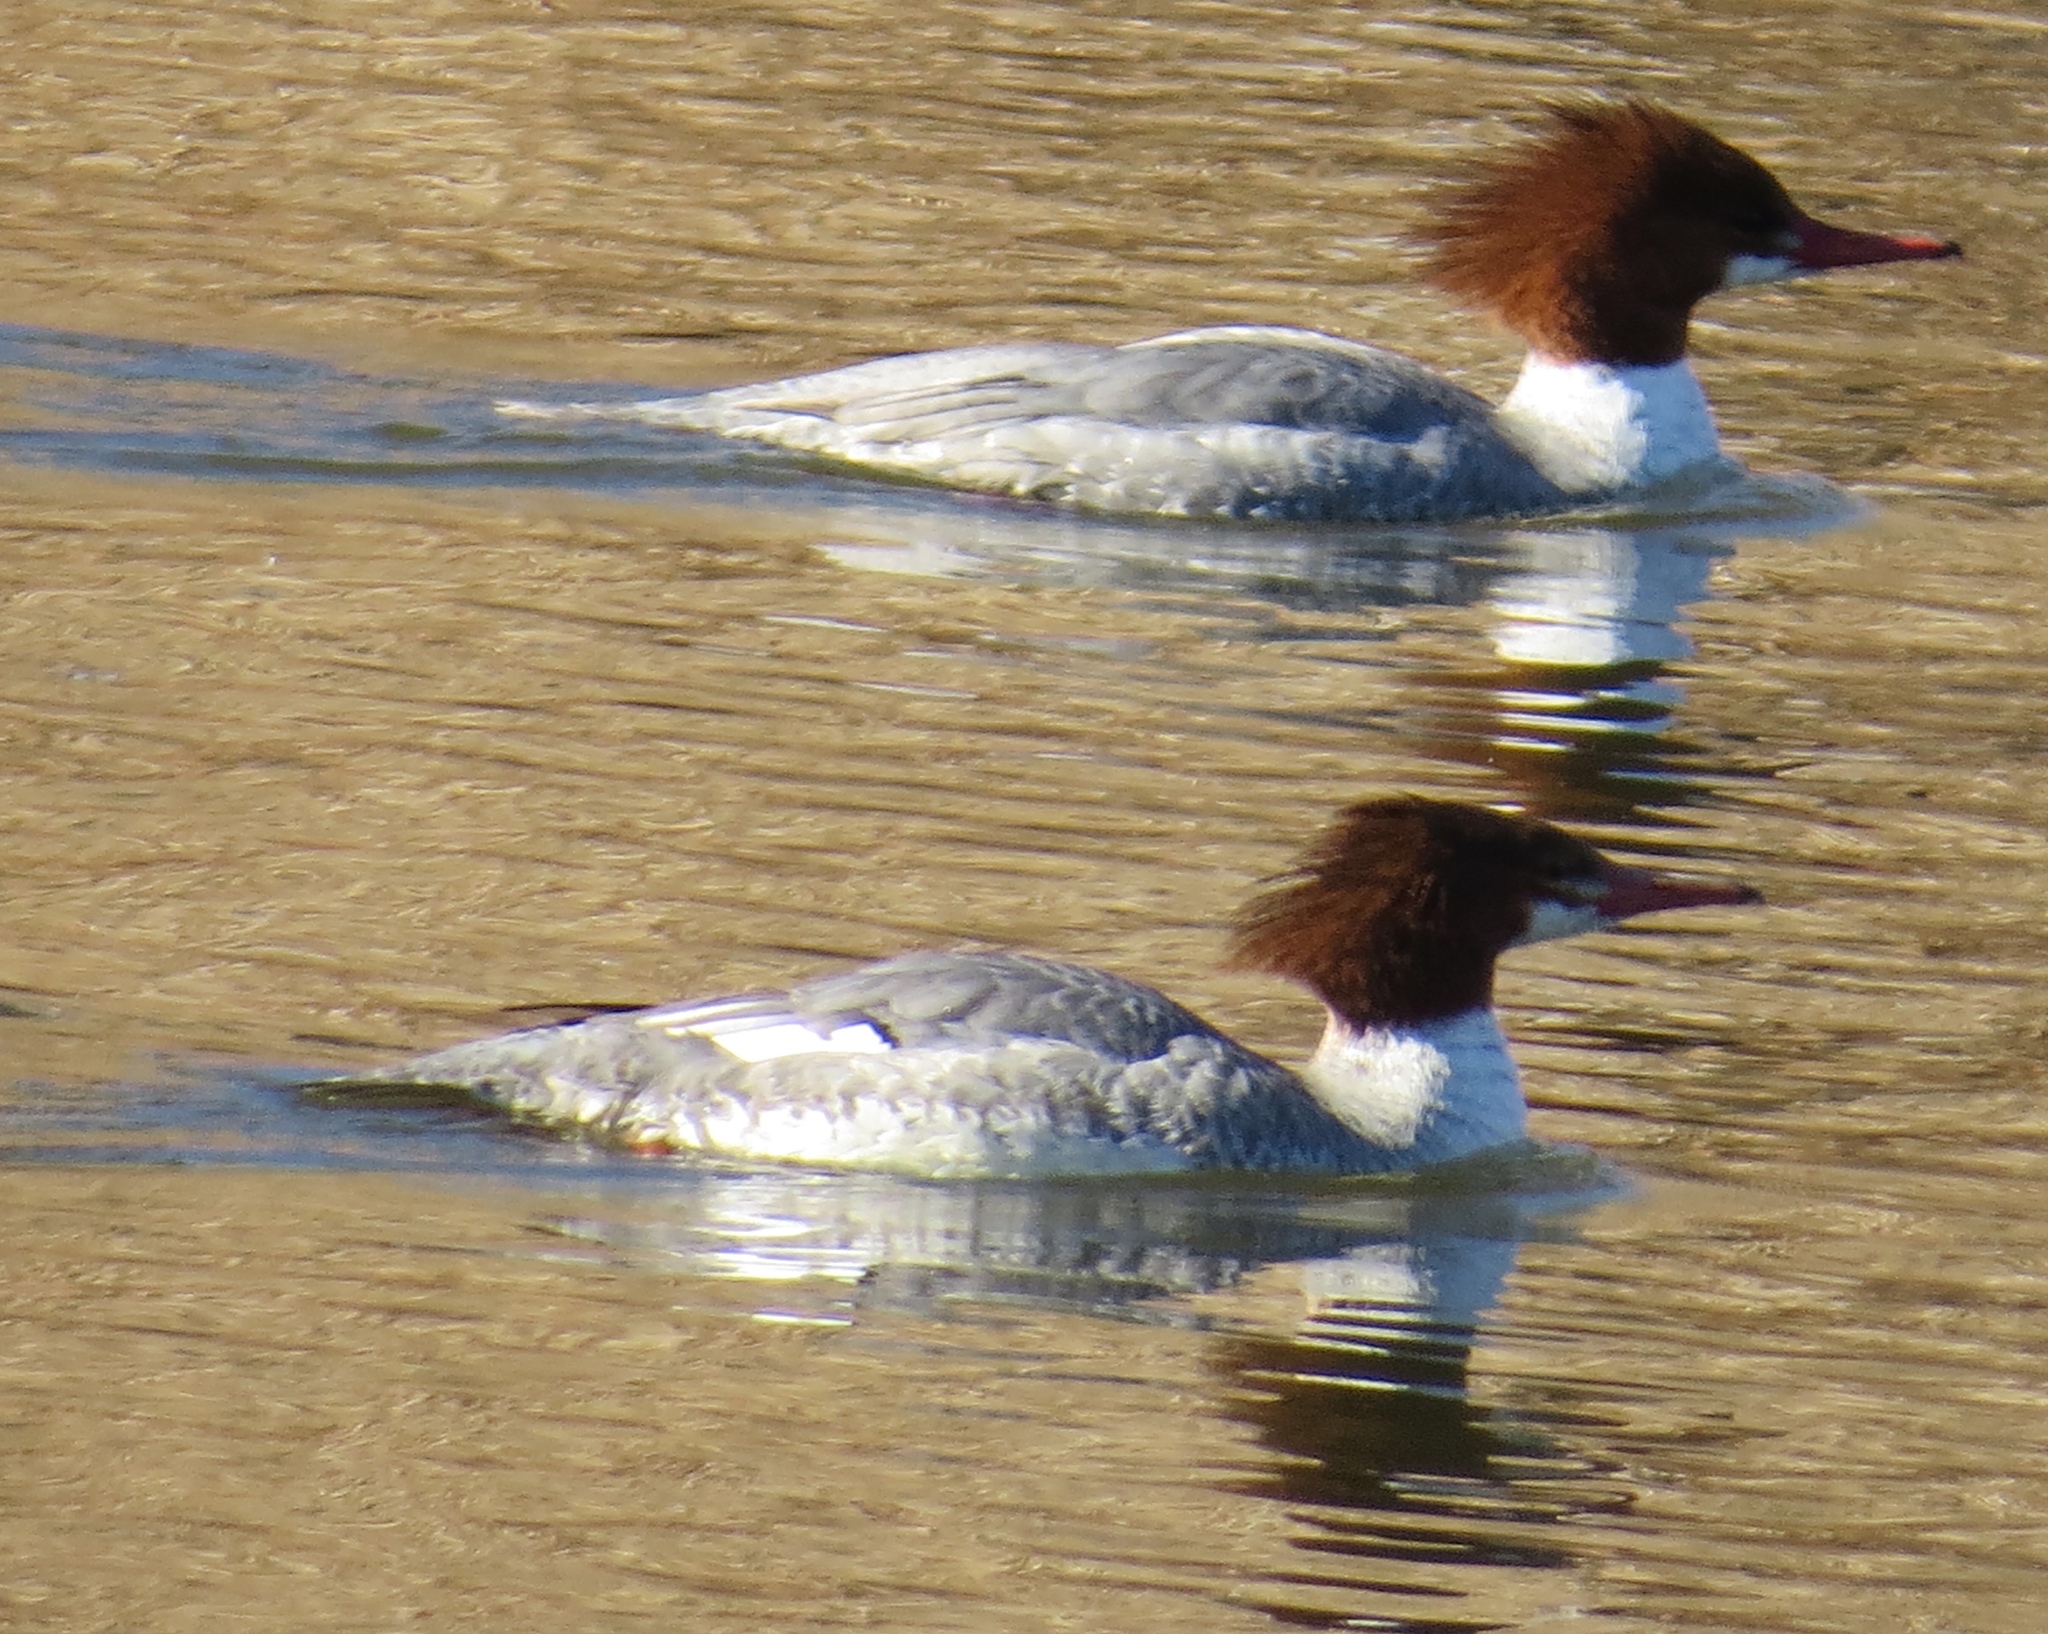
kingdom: Animalia
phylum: Chordata
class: Aves
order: Anseriformes
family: Anatidae
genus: Mergus
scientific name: Mergus merganser
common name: Common merganser
